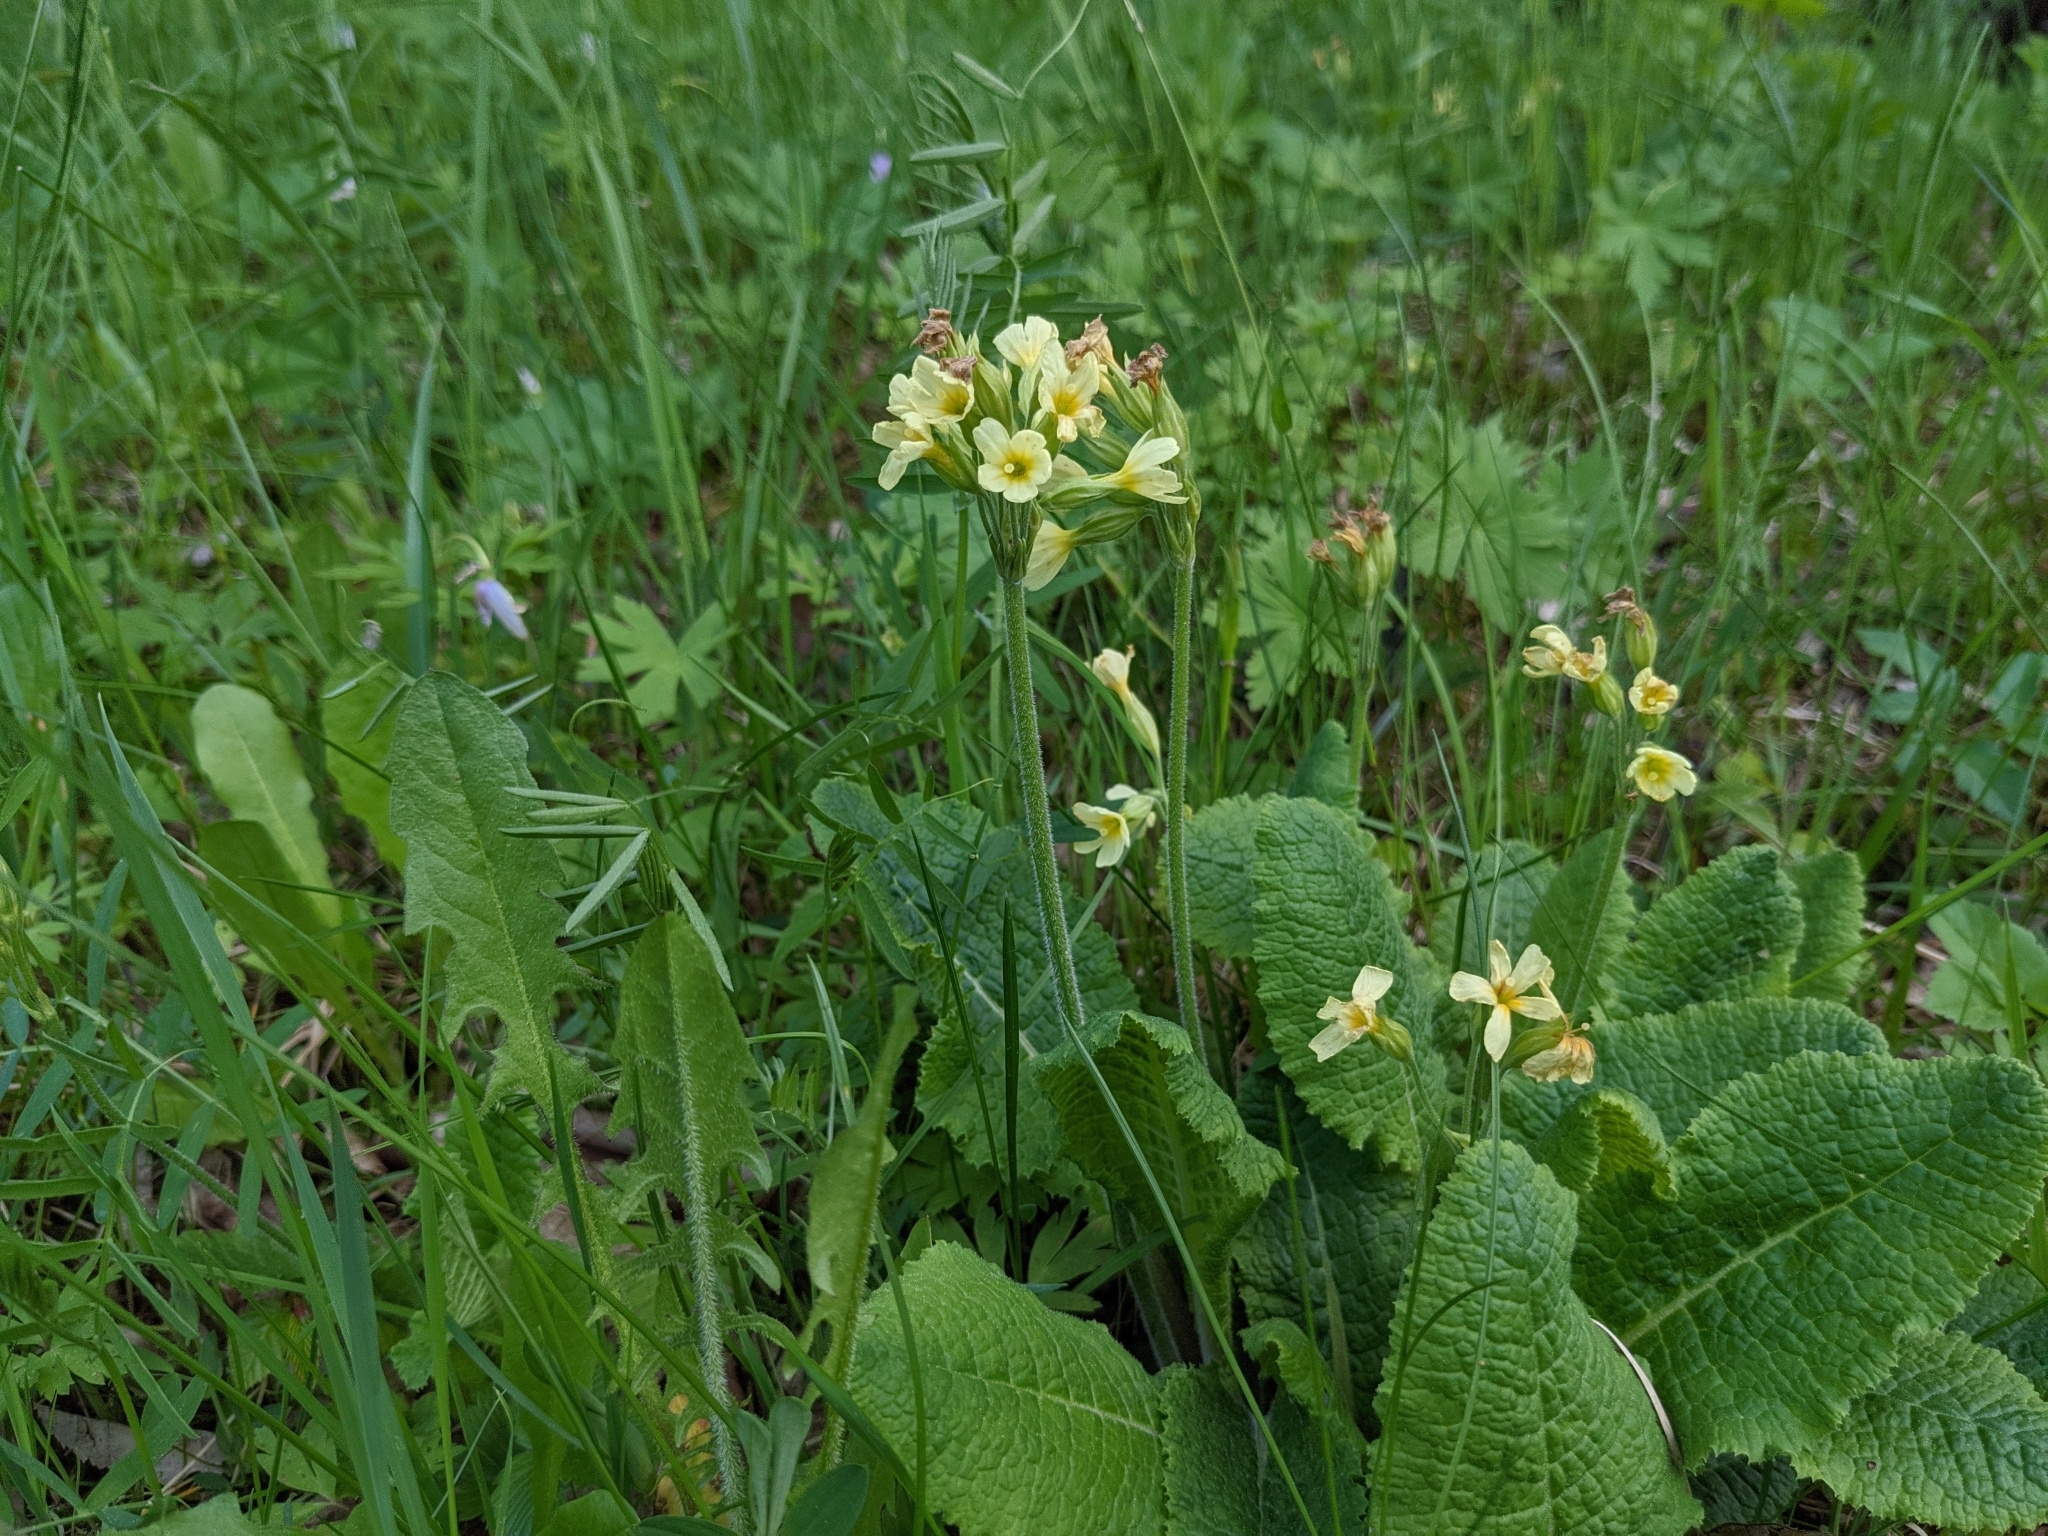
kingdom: Plantae
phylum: Tracheophyta
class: Magnoliopsida
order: Ericales
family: Primulaceae
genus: Primula
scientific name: Primula elatior
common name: Oxlip
